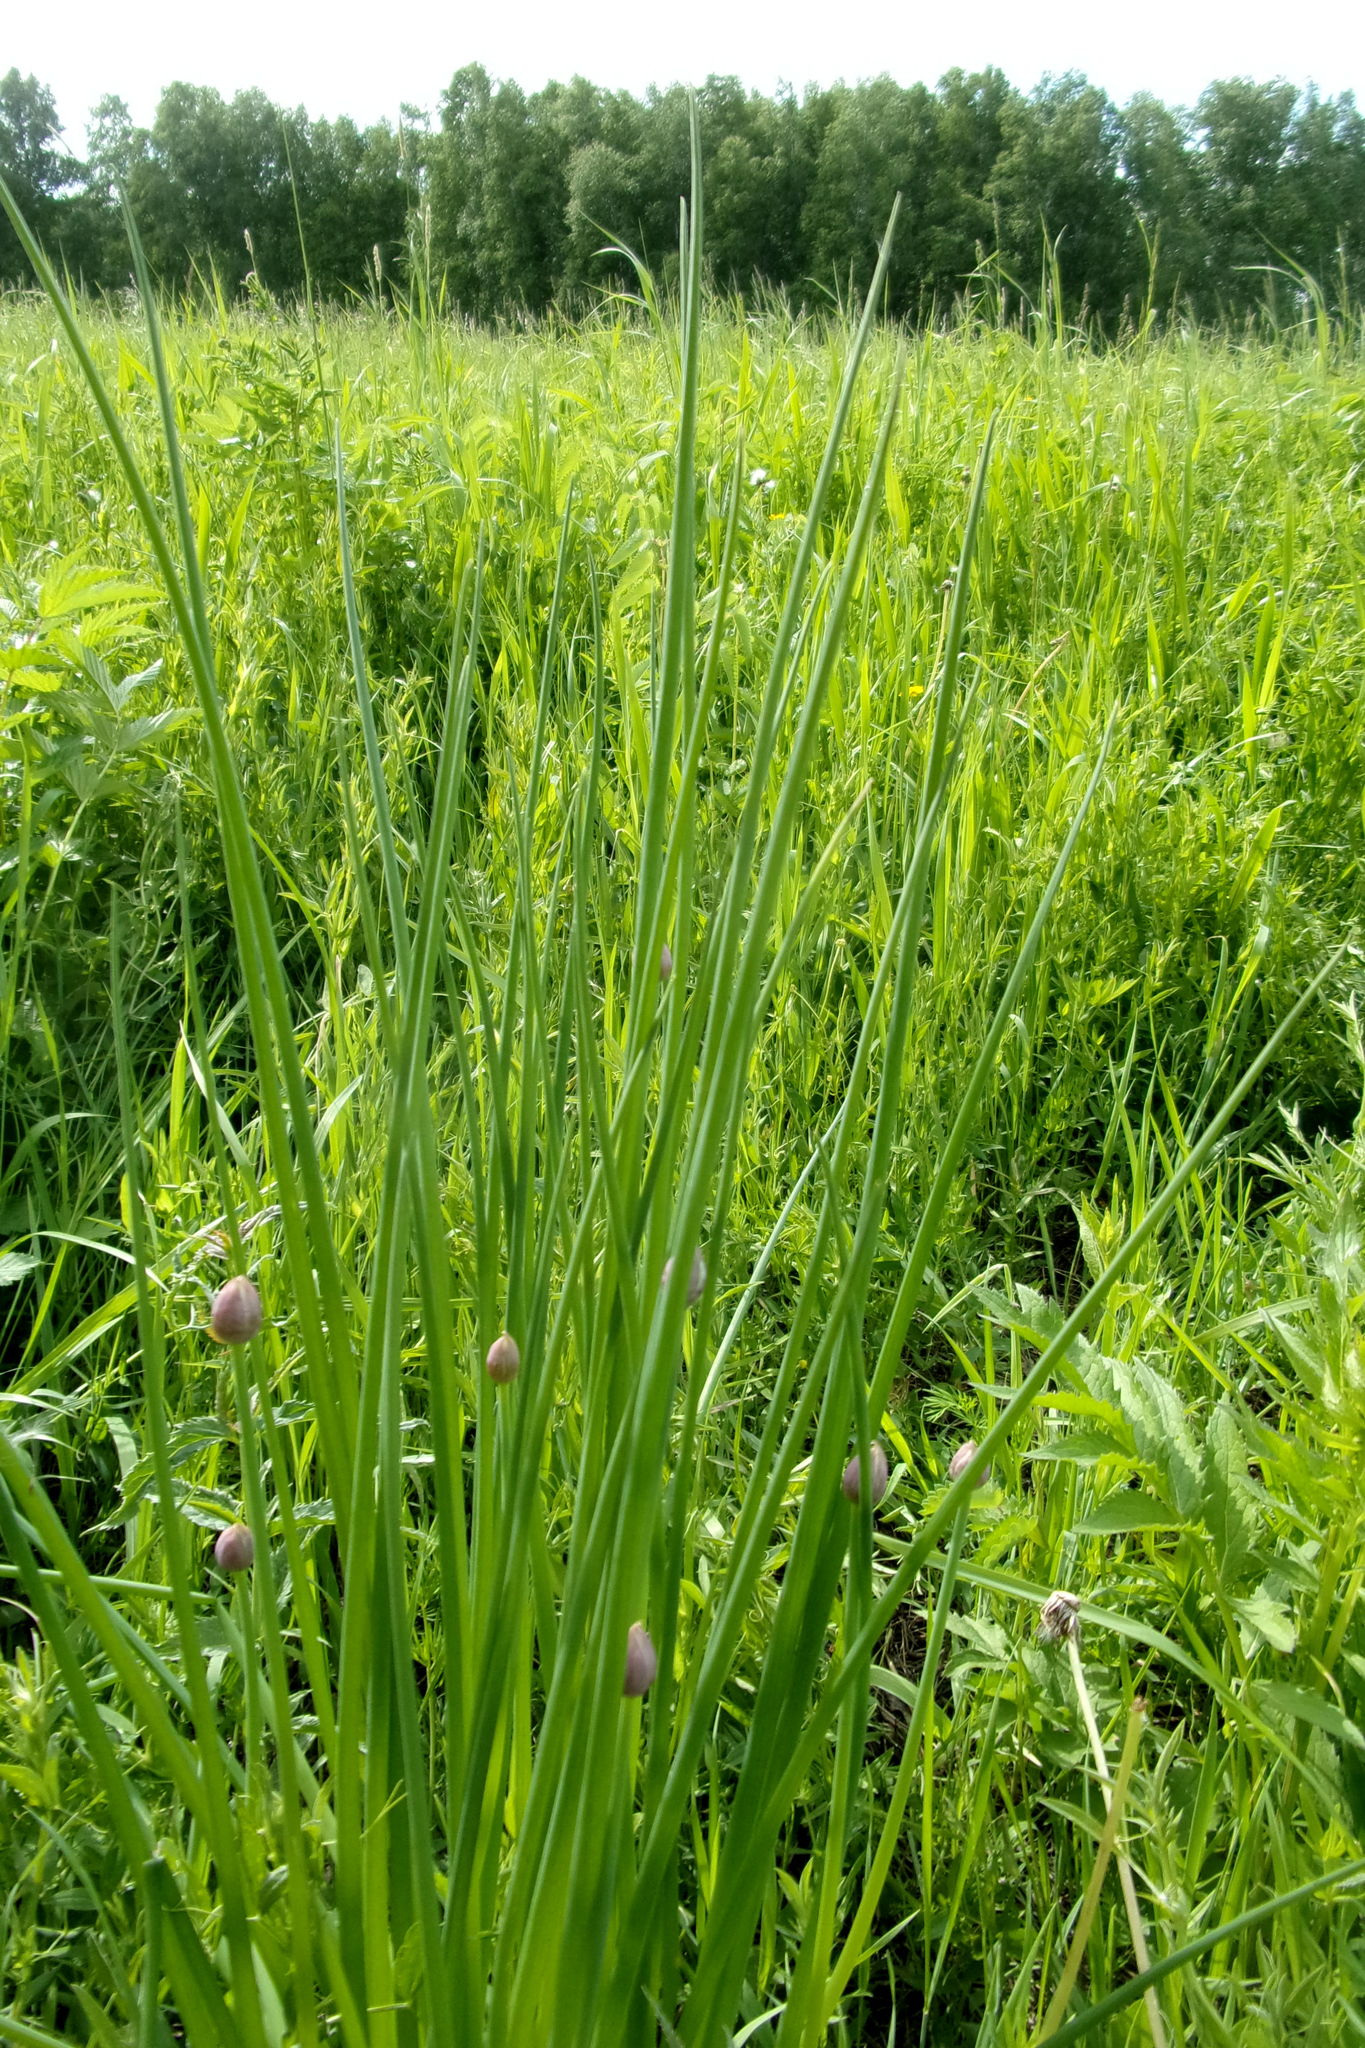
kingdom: Plantae
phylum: Tracheophyta
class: Liliopsida
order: Asparagales
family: Amaryllidaceae
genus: Allium
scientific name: Allium schoenoprasum
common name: Chives
